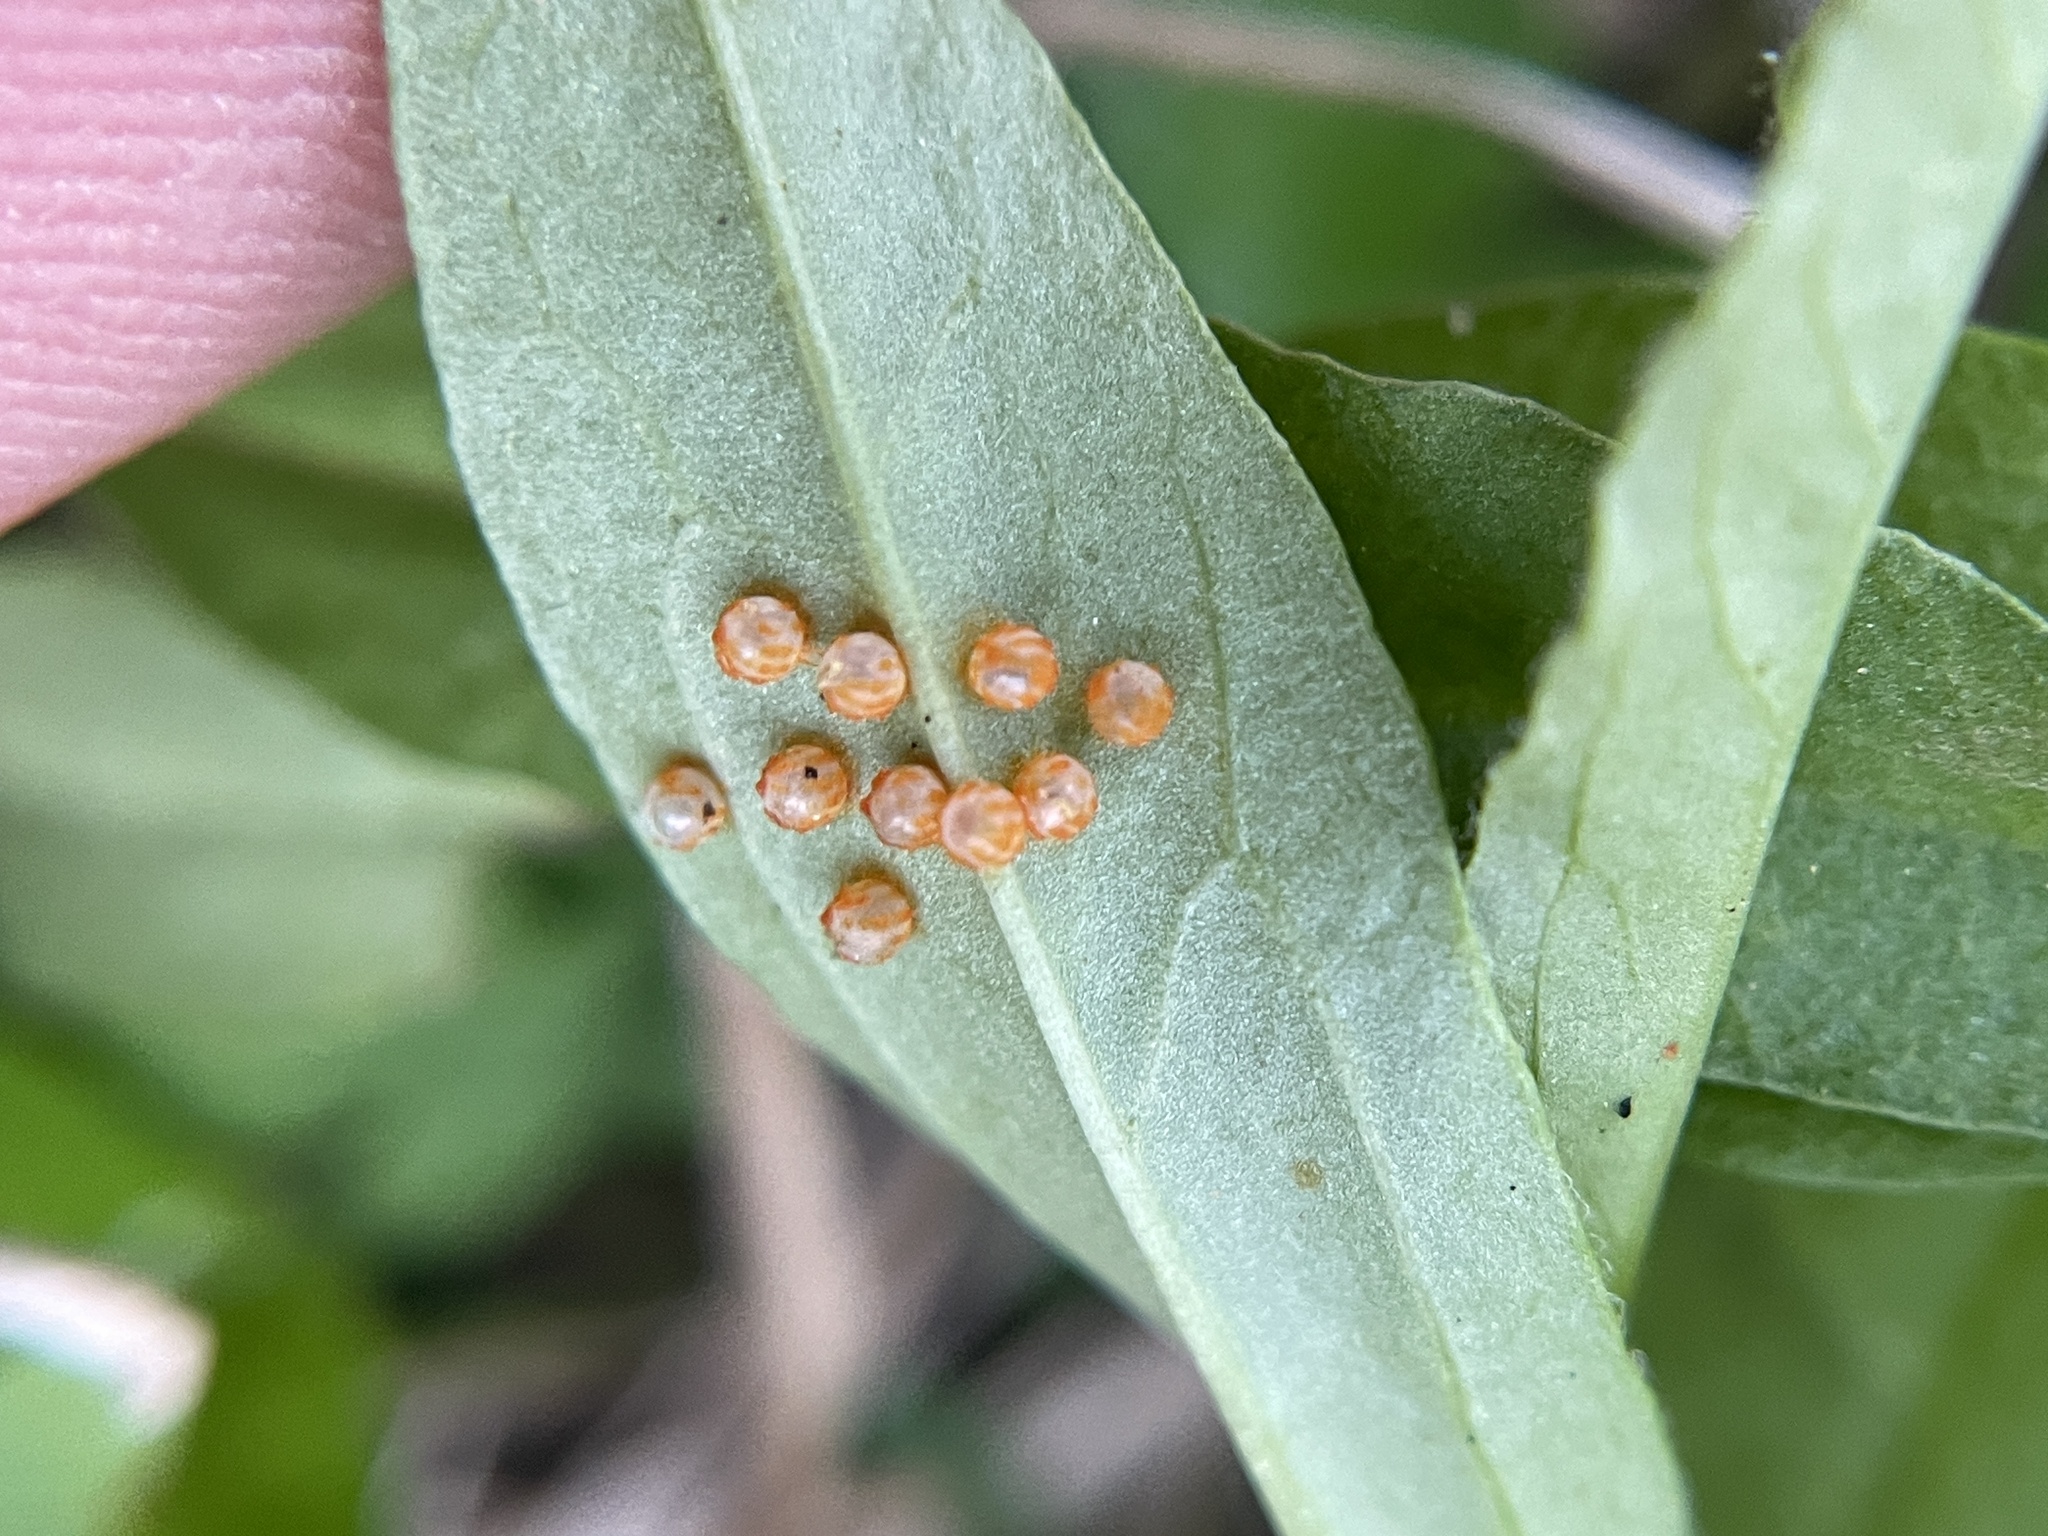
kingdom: Animalia
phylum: Arthropoda
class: Insecta
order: Lepidoptera
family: Papilionidae
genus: Battus
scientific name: Battus philenor
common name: Pipevine swallowtail
